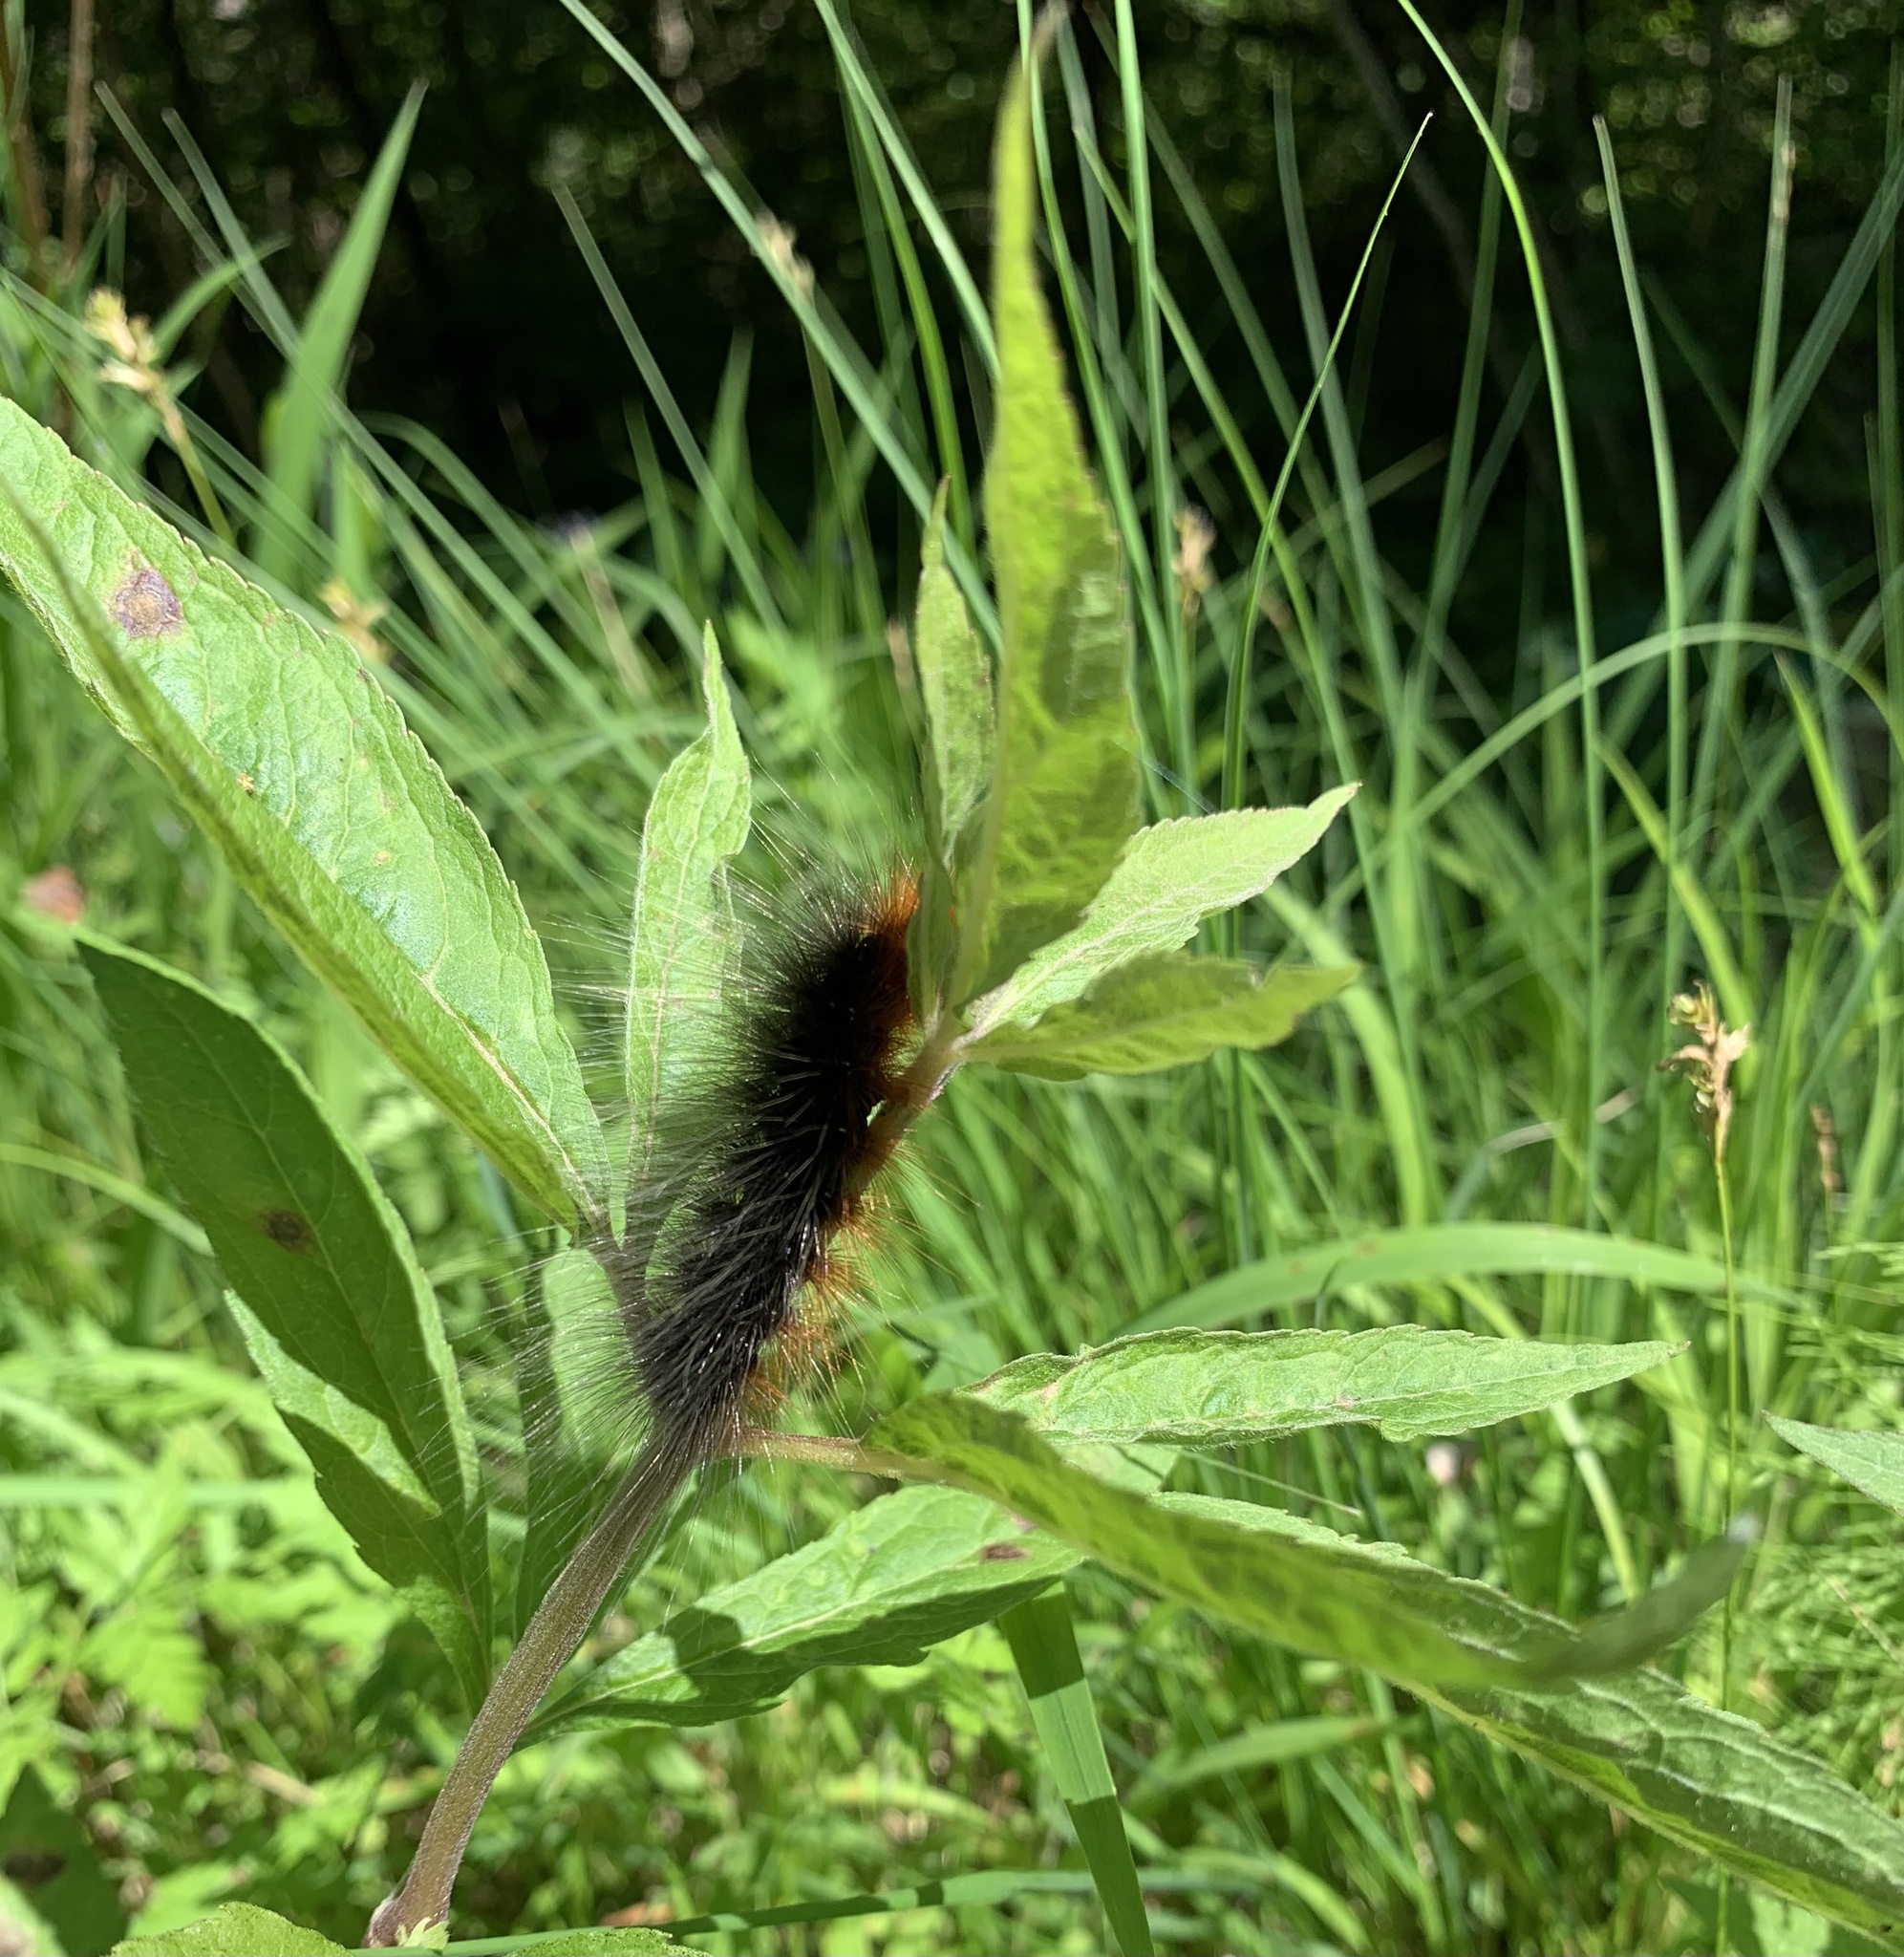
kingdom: Animalia
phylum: Arthropoda
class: Insecta
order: Lepidoptera
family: Erebidae
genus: Arctia
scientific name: Arctia caja
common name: Garden tiger
